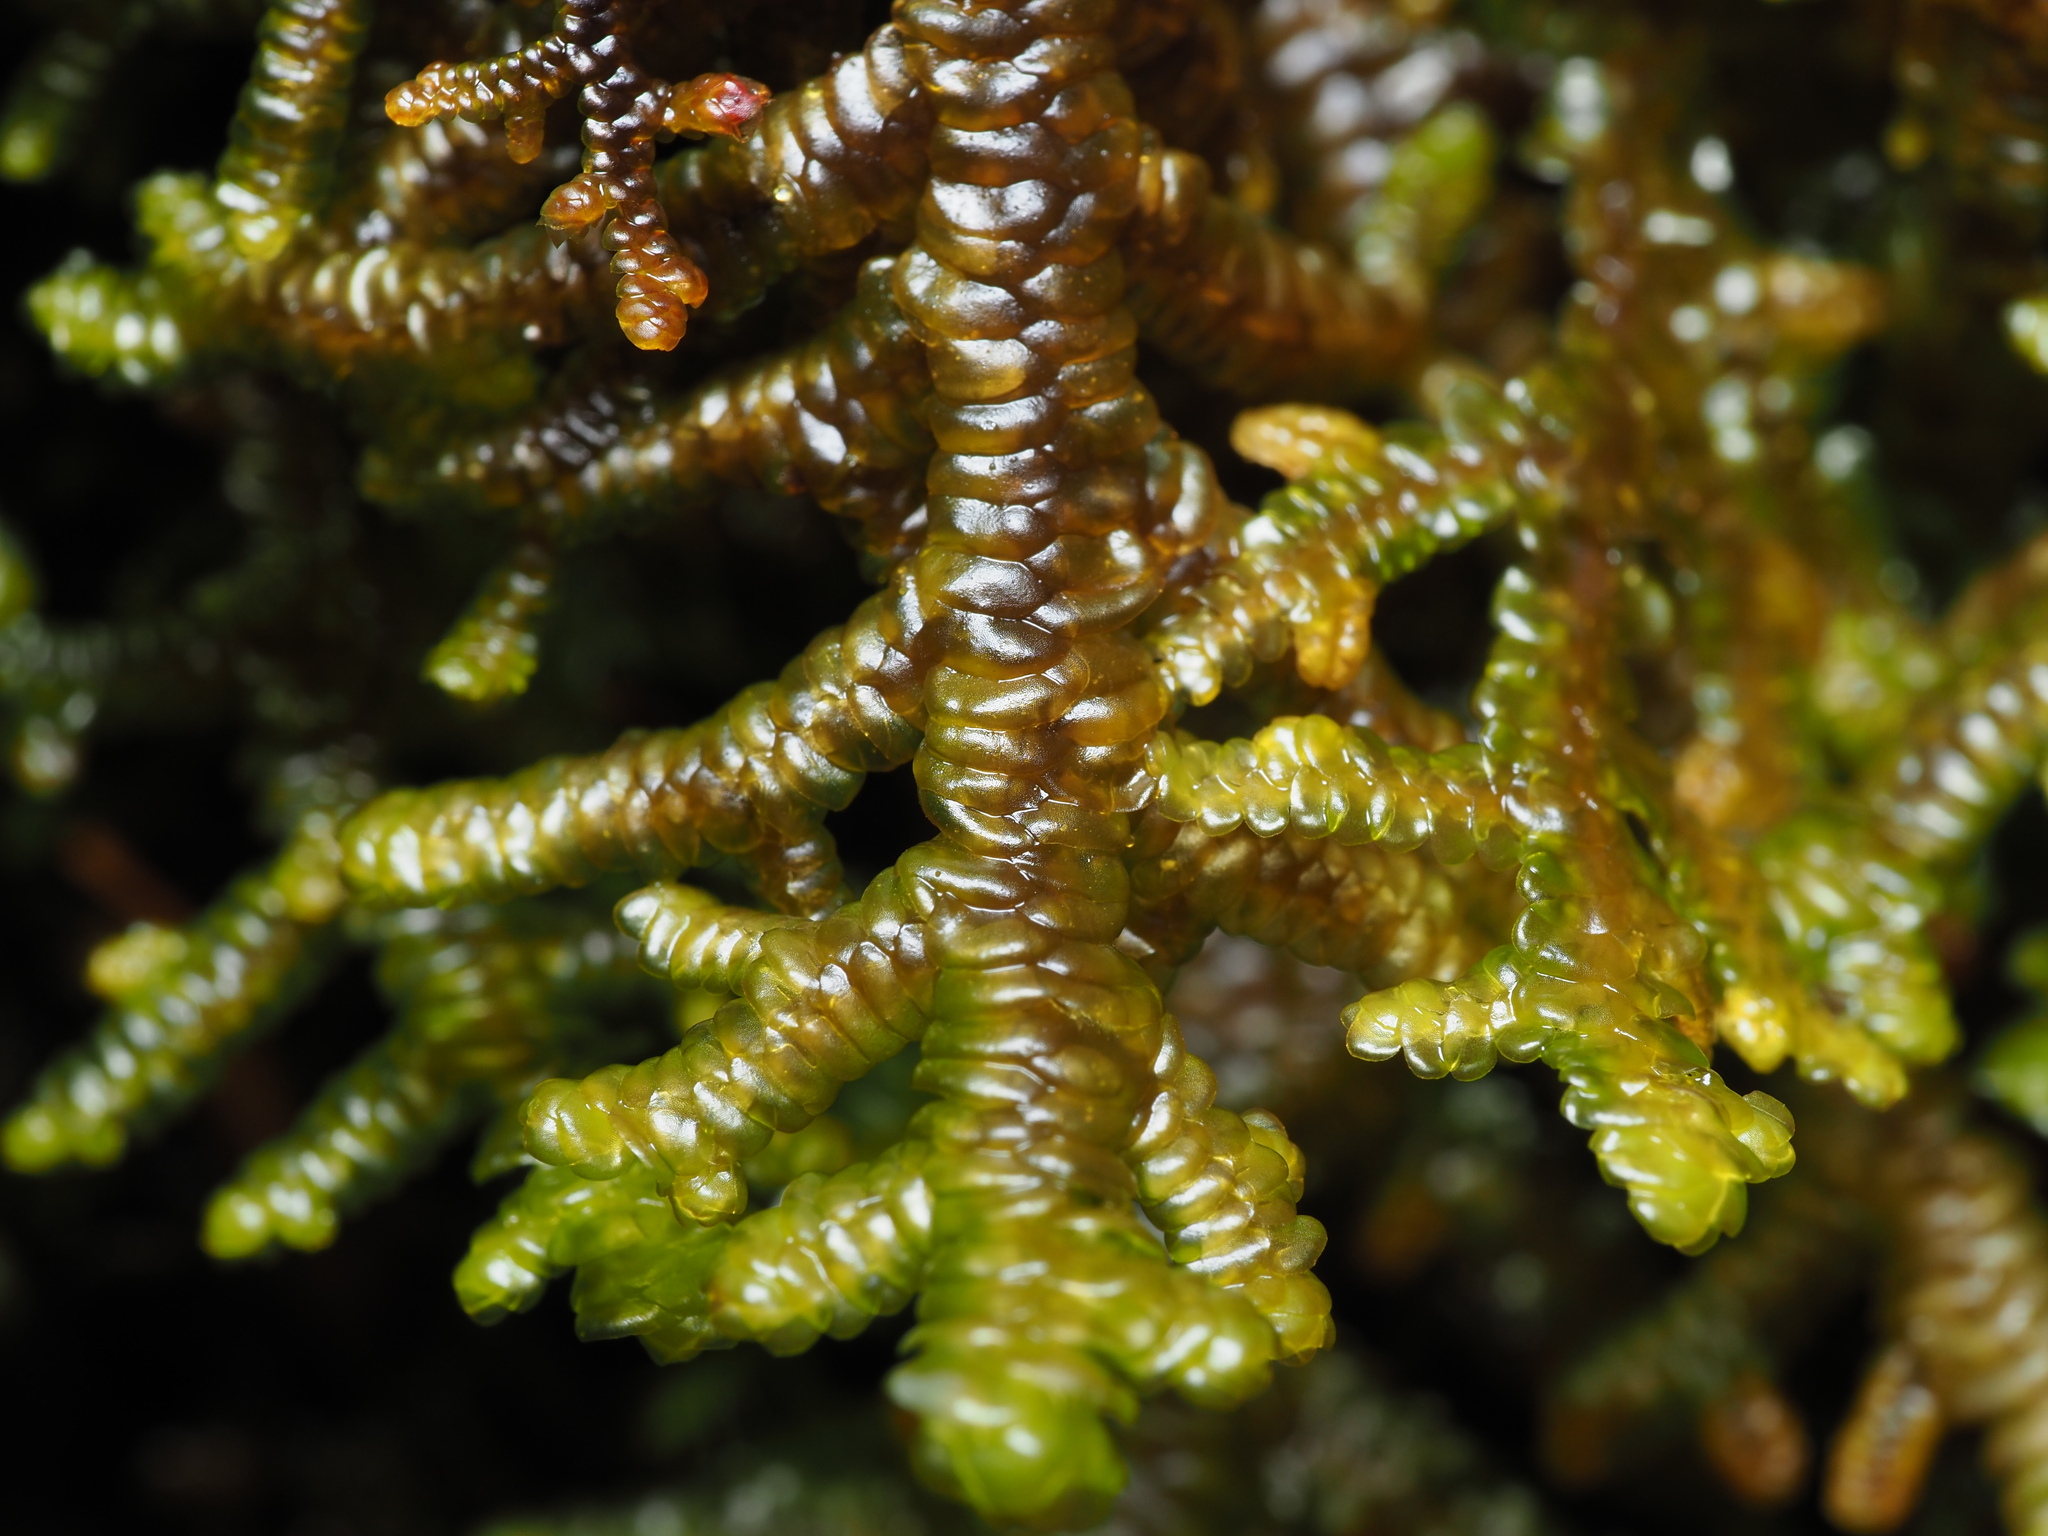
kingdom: Plantae
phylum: Marchantiophyta
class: Jungermanniopsida
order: Porellales
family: Porellaceae
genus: Porella
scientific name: Porella navicularis
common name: Tree ruffle liverwort
